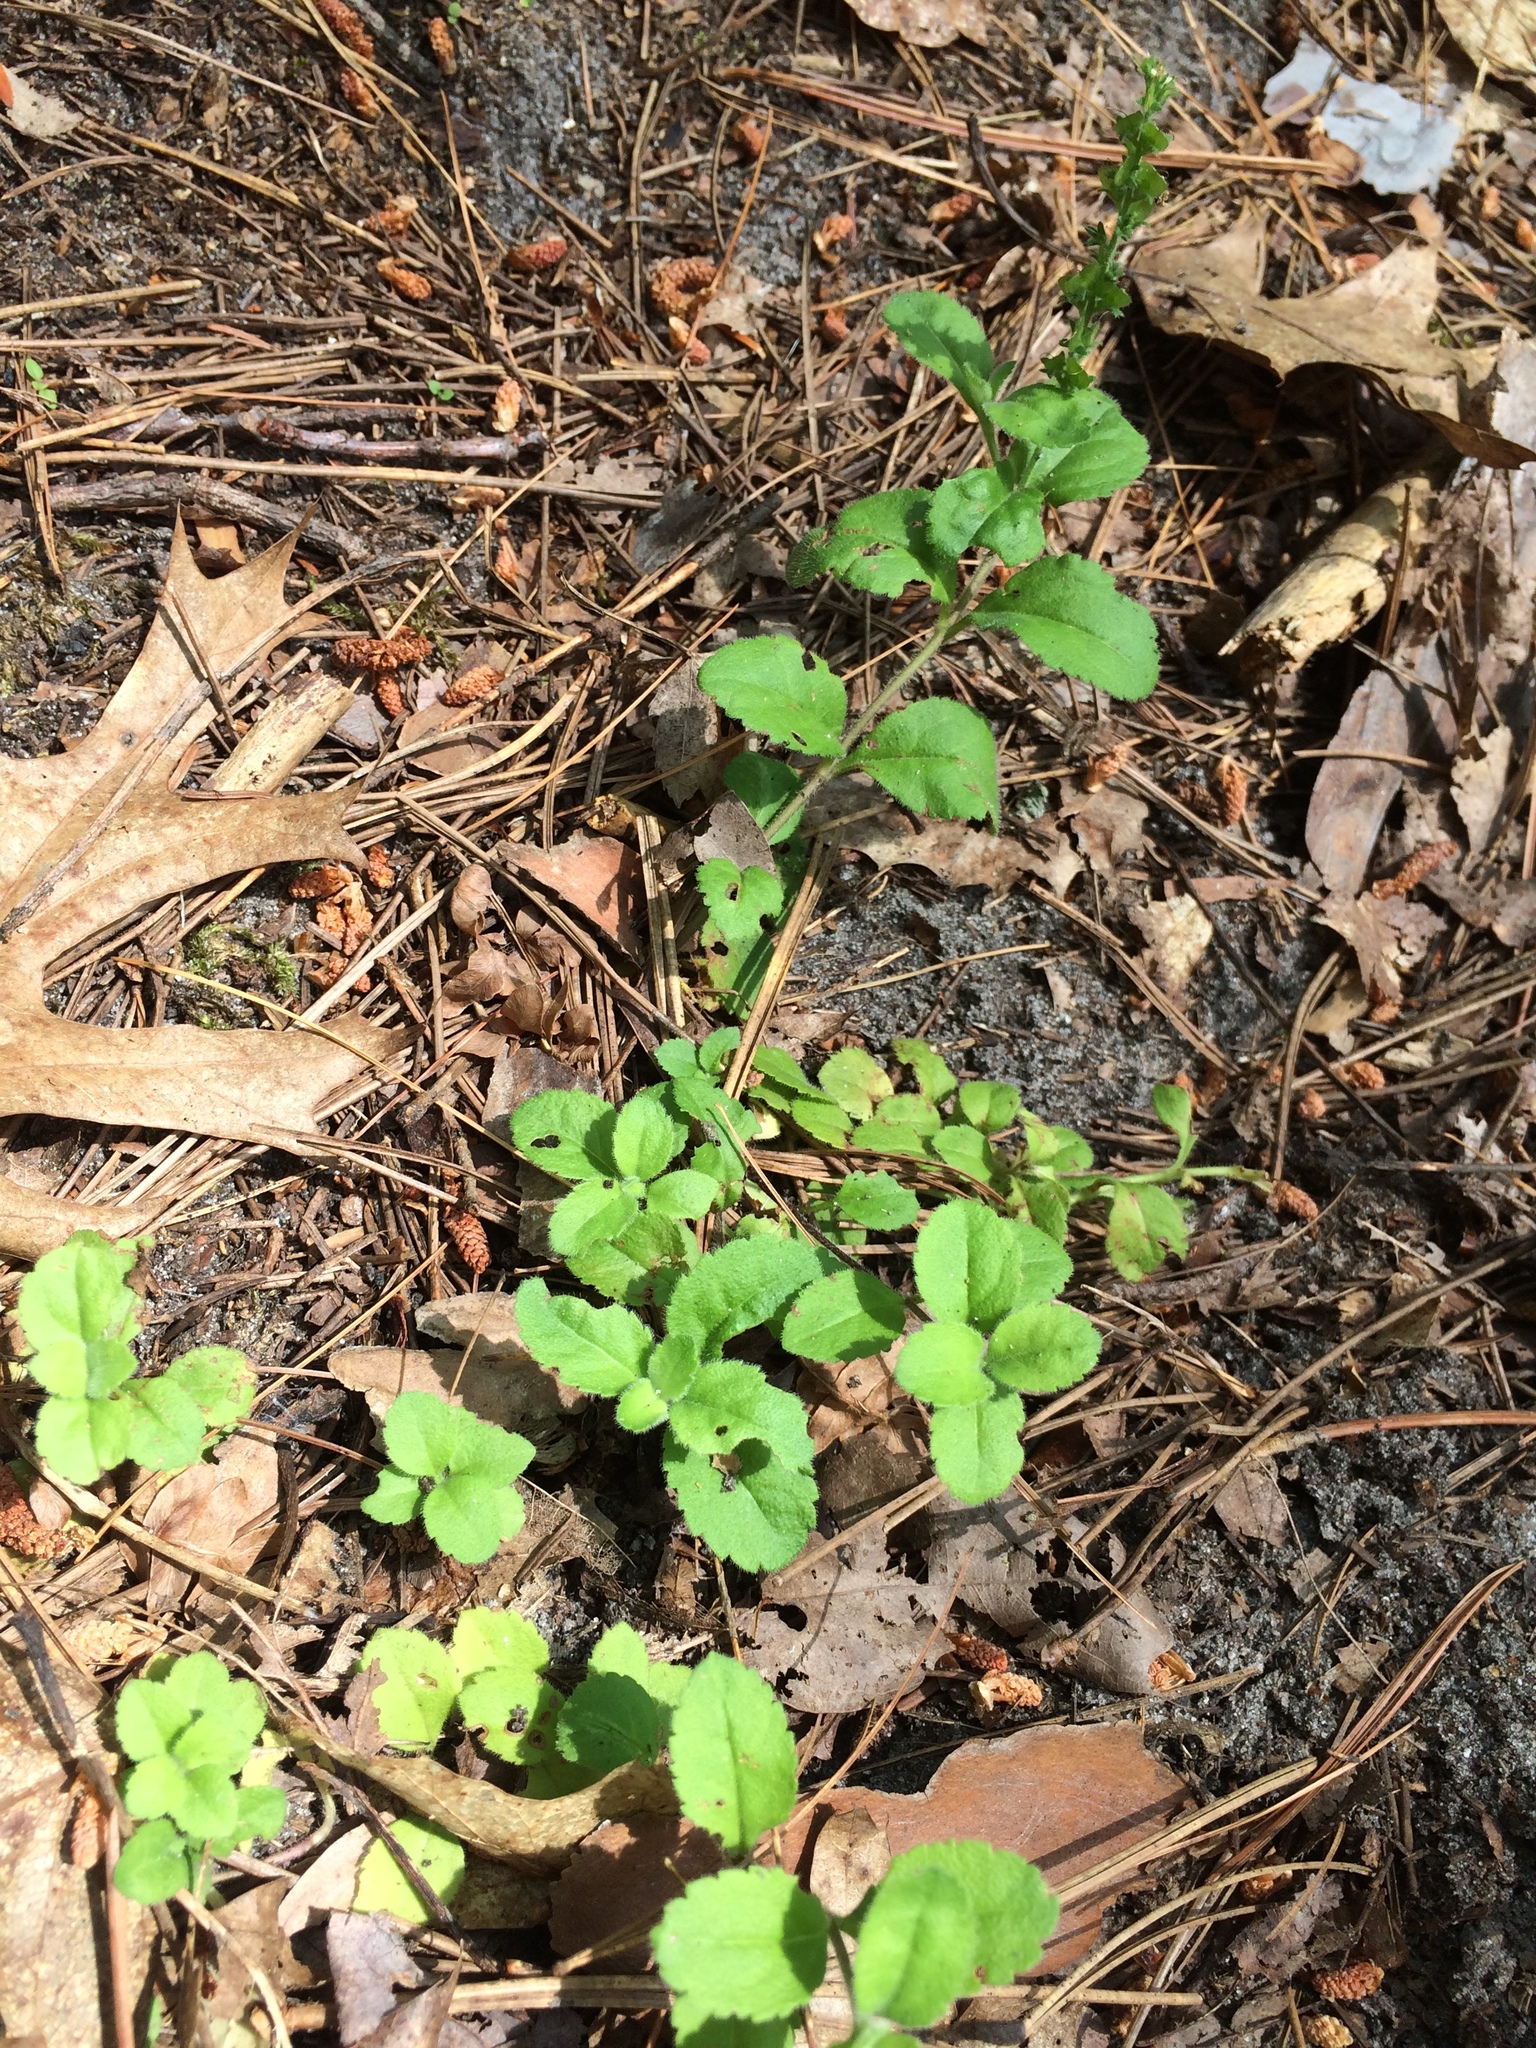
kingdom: Plantae
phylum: Tracheophyta
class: Magnoliopsida
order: Lamiales
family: Plantaginaceae
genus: Veronica
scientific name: Veronica officinalis
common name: Common speedwell
